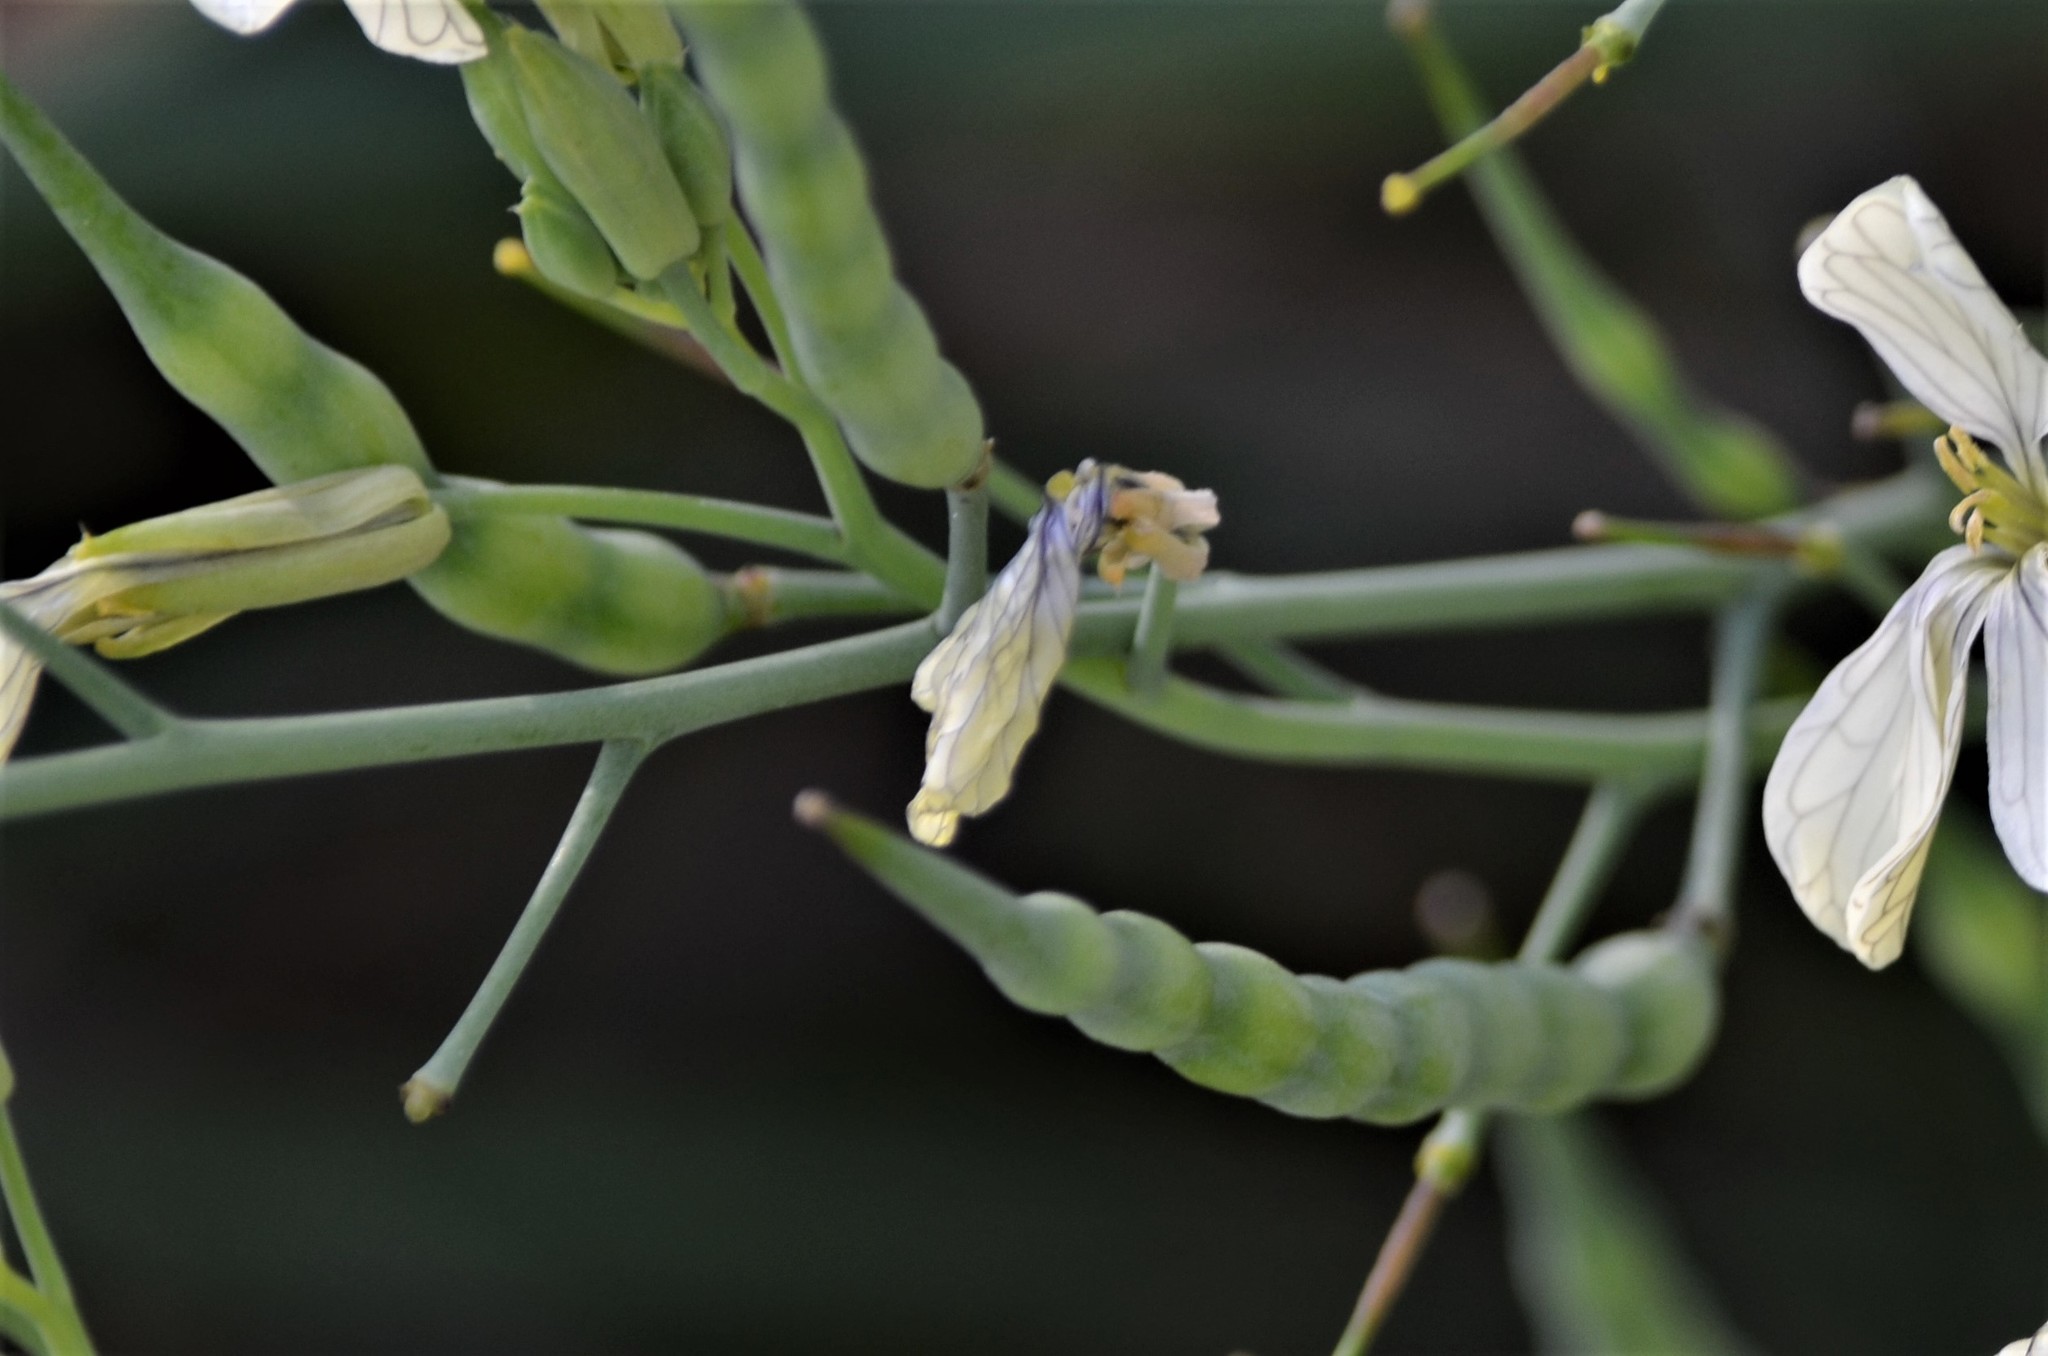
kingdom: Plantae
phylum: Tracheophyta
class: Magnoliopsida
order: Brassicales
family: Brassicaceae
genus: Raphanus
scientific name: Raphanus raphanistrum
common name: Wild radish
